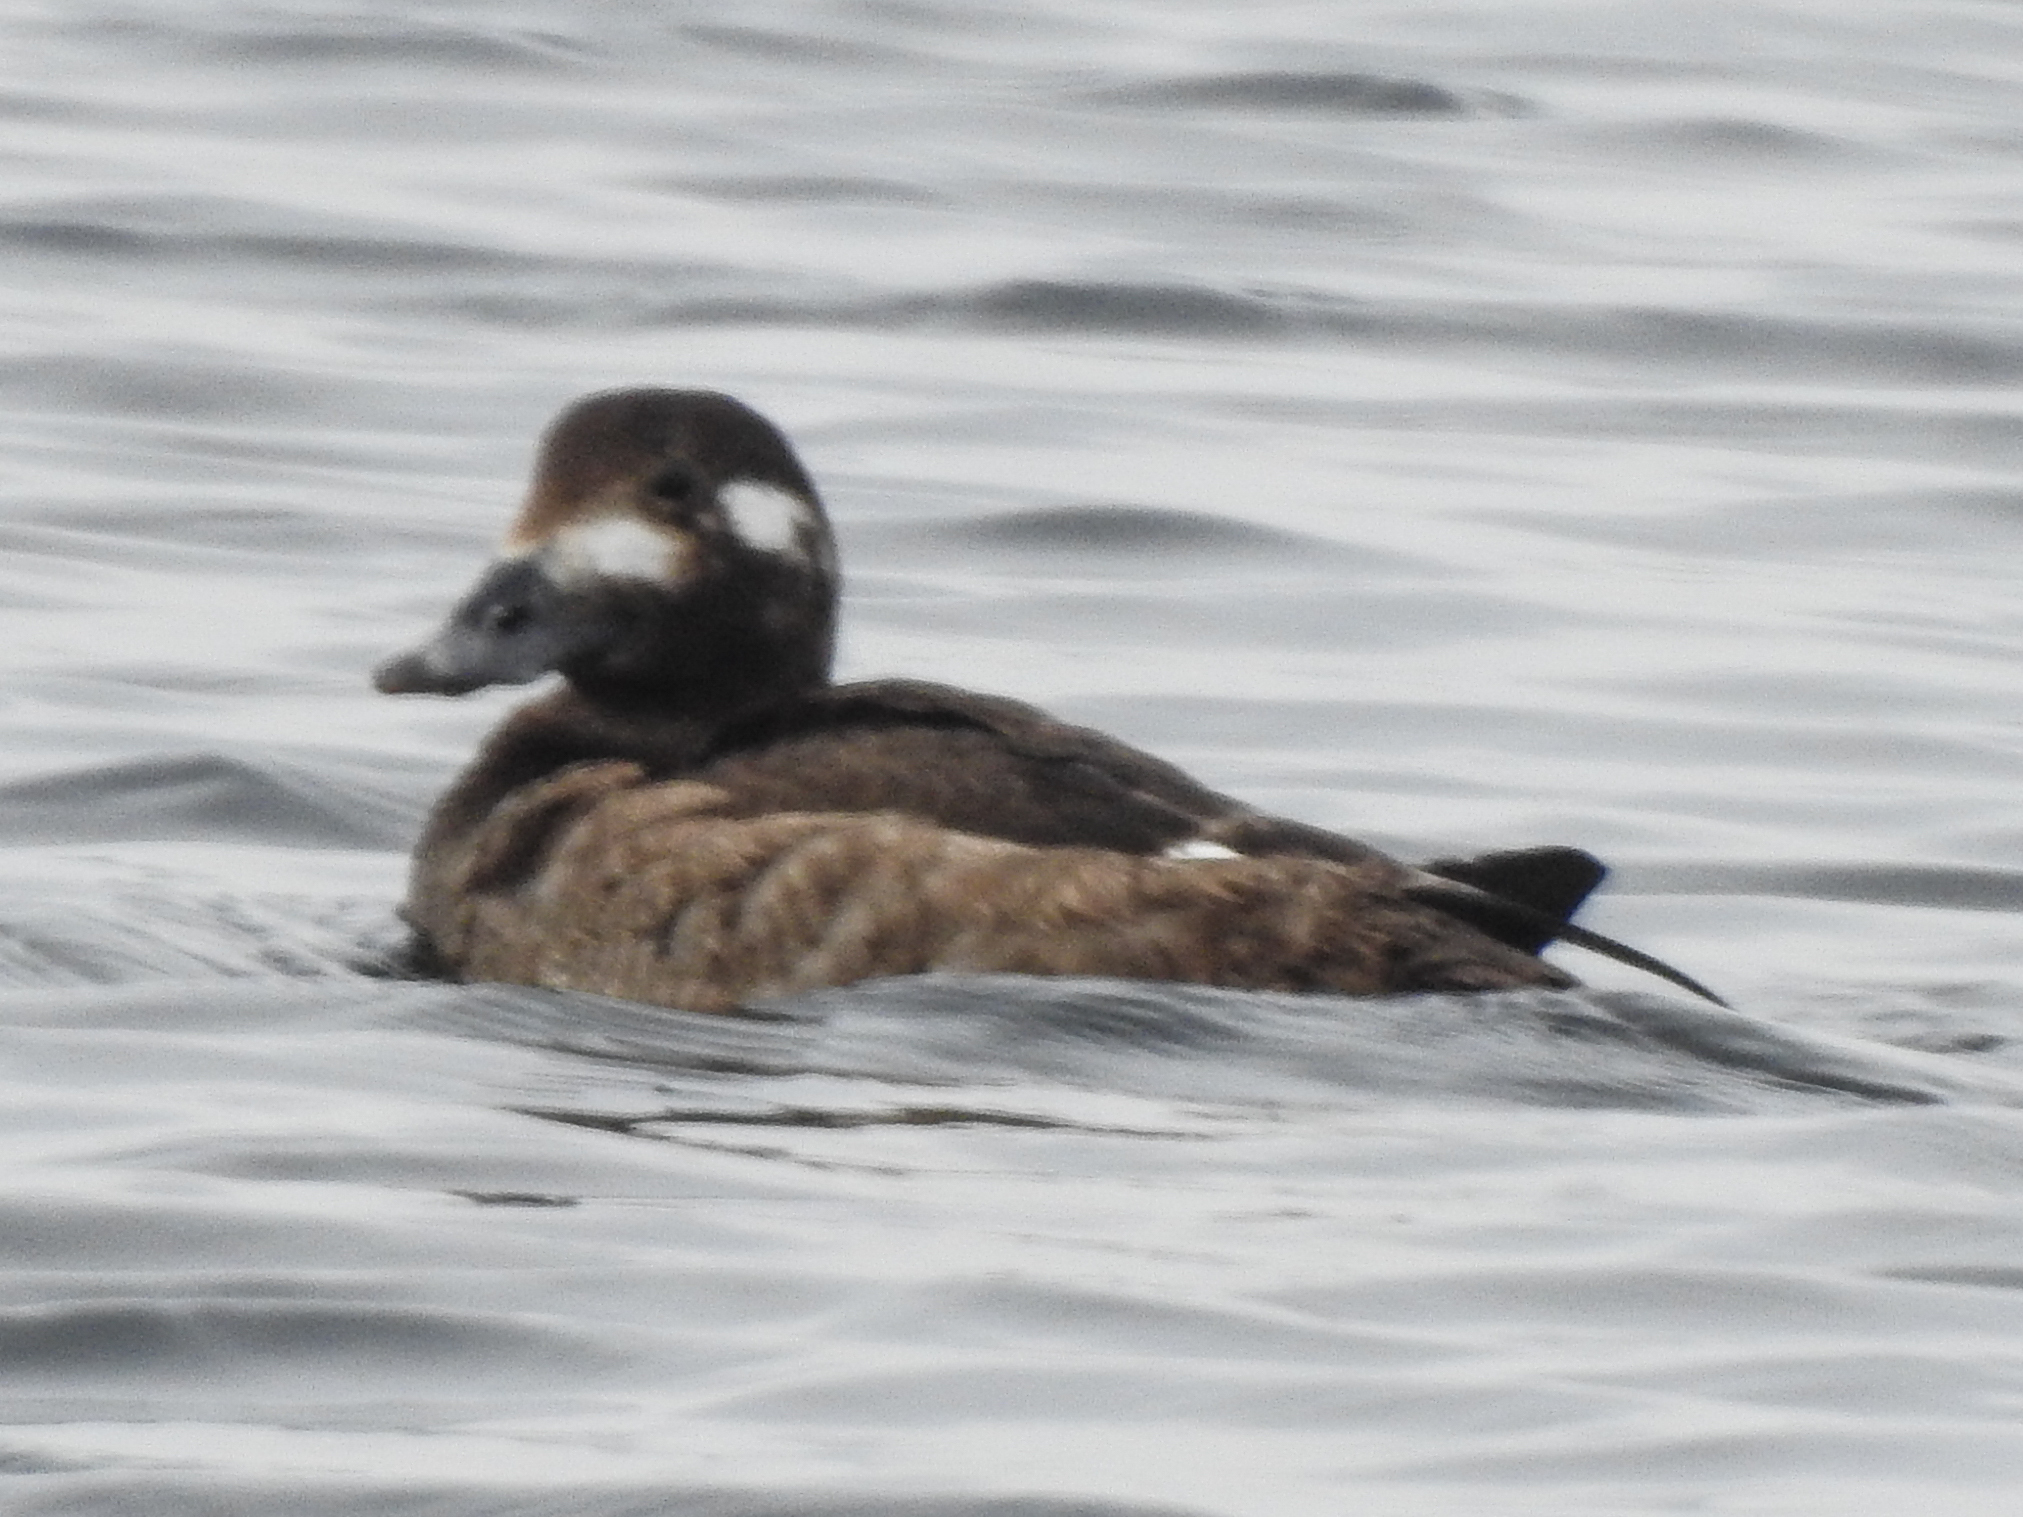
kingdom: Animalia
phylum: Chordata
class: Aves
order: Anseriformes
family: Anatidae
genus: Melanitta
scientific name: Melanitta deglandi
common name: White-winged scoter
